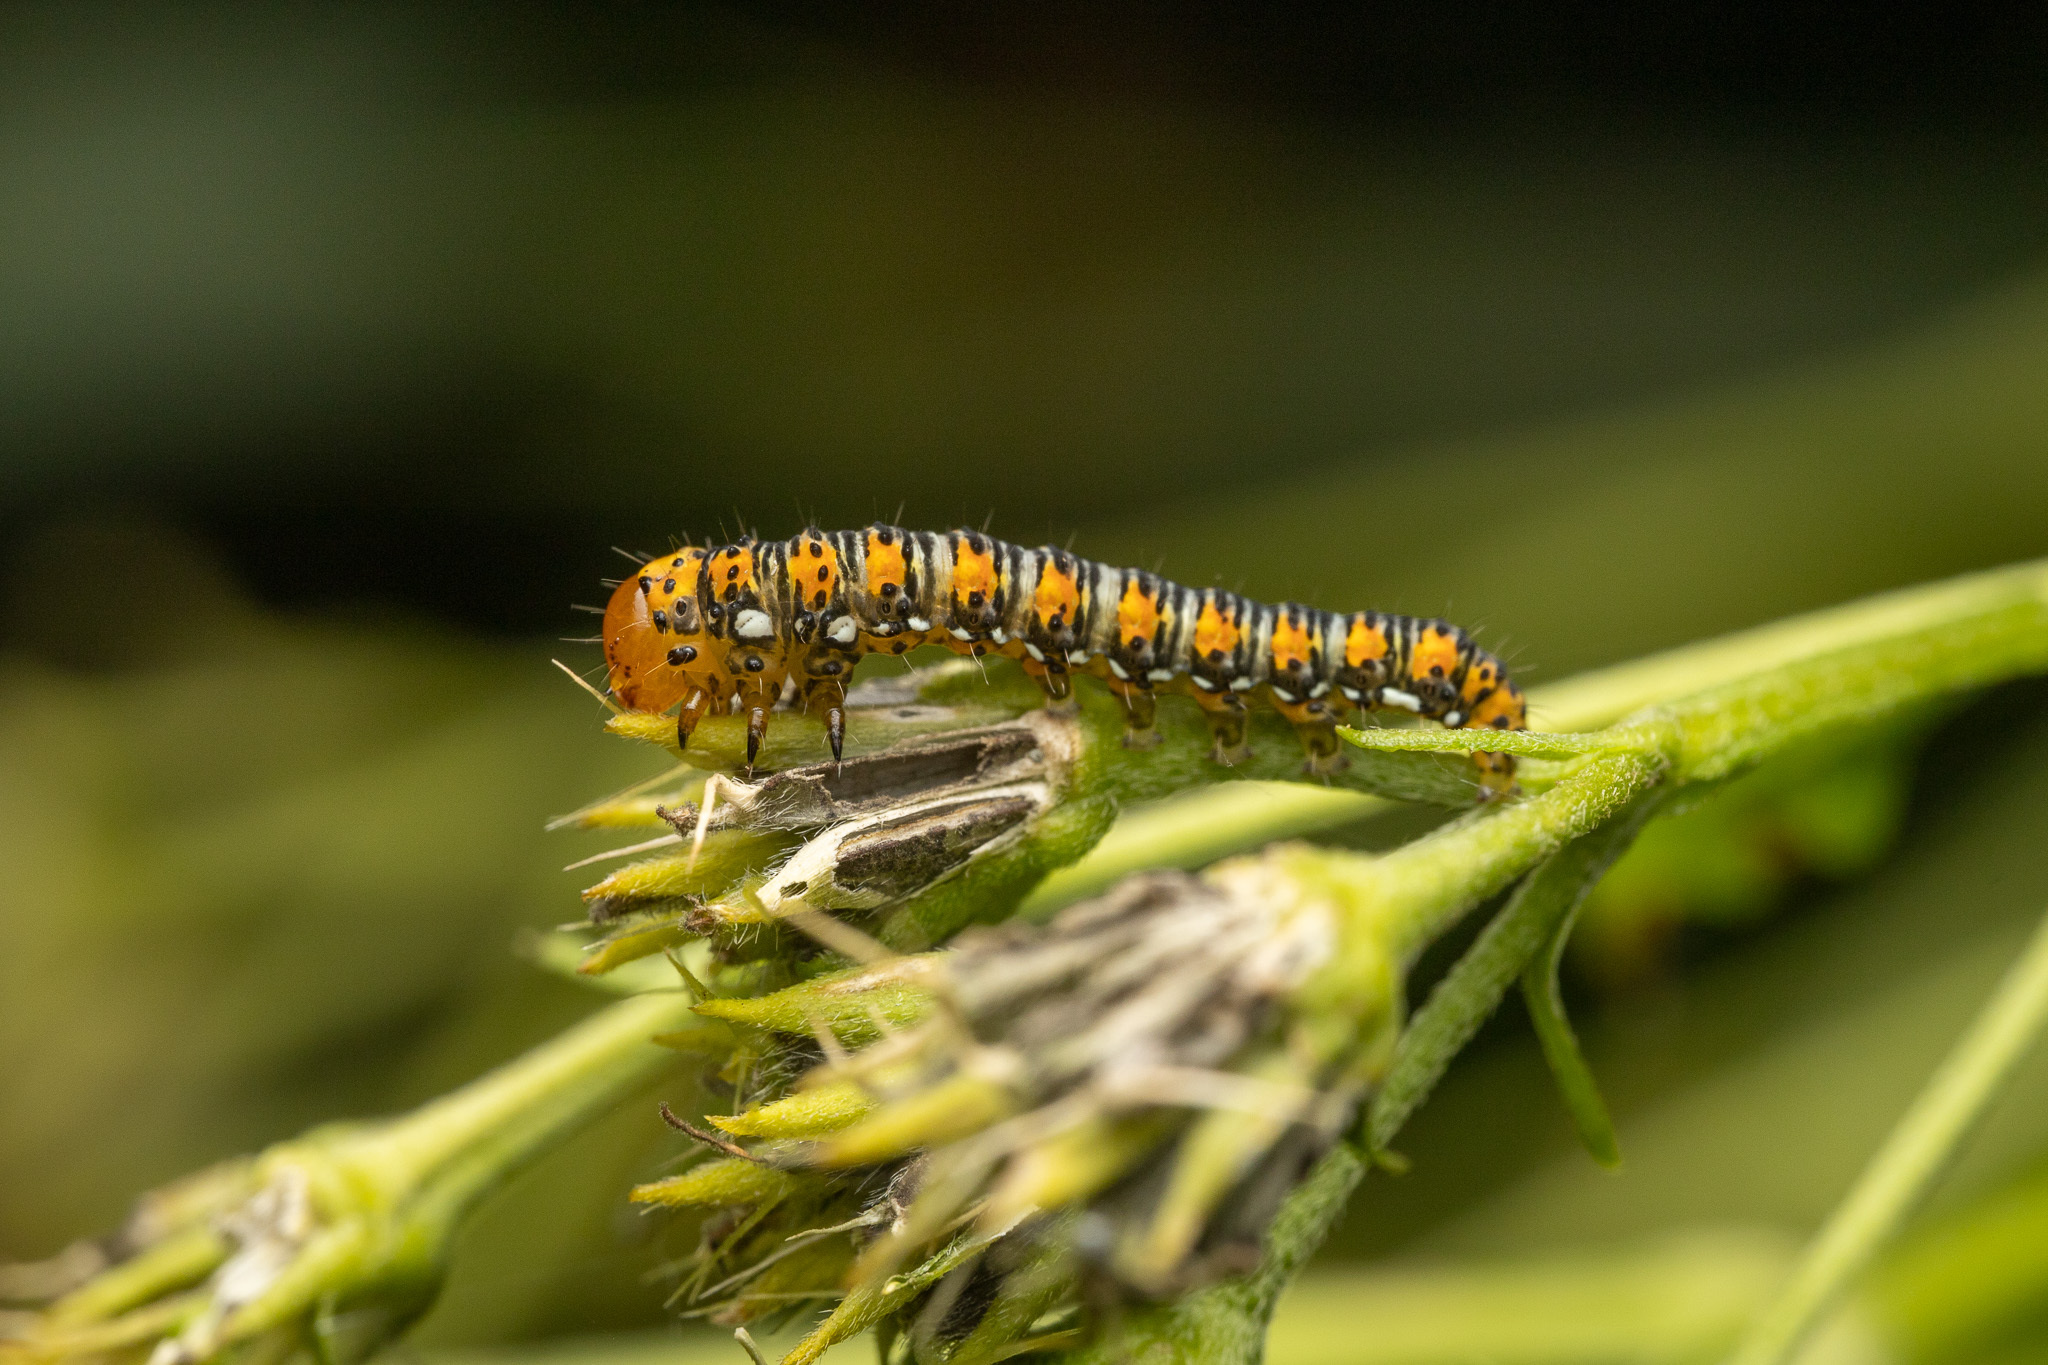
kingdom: Animalia
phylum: Arthropoda
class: Insecta
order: Lepidoptera
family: Noctuidae
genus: Basilodes
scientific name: Basilodes pepita
